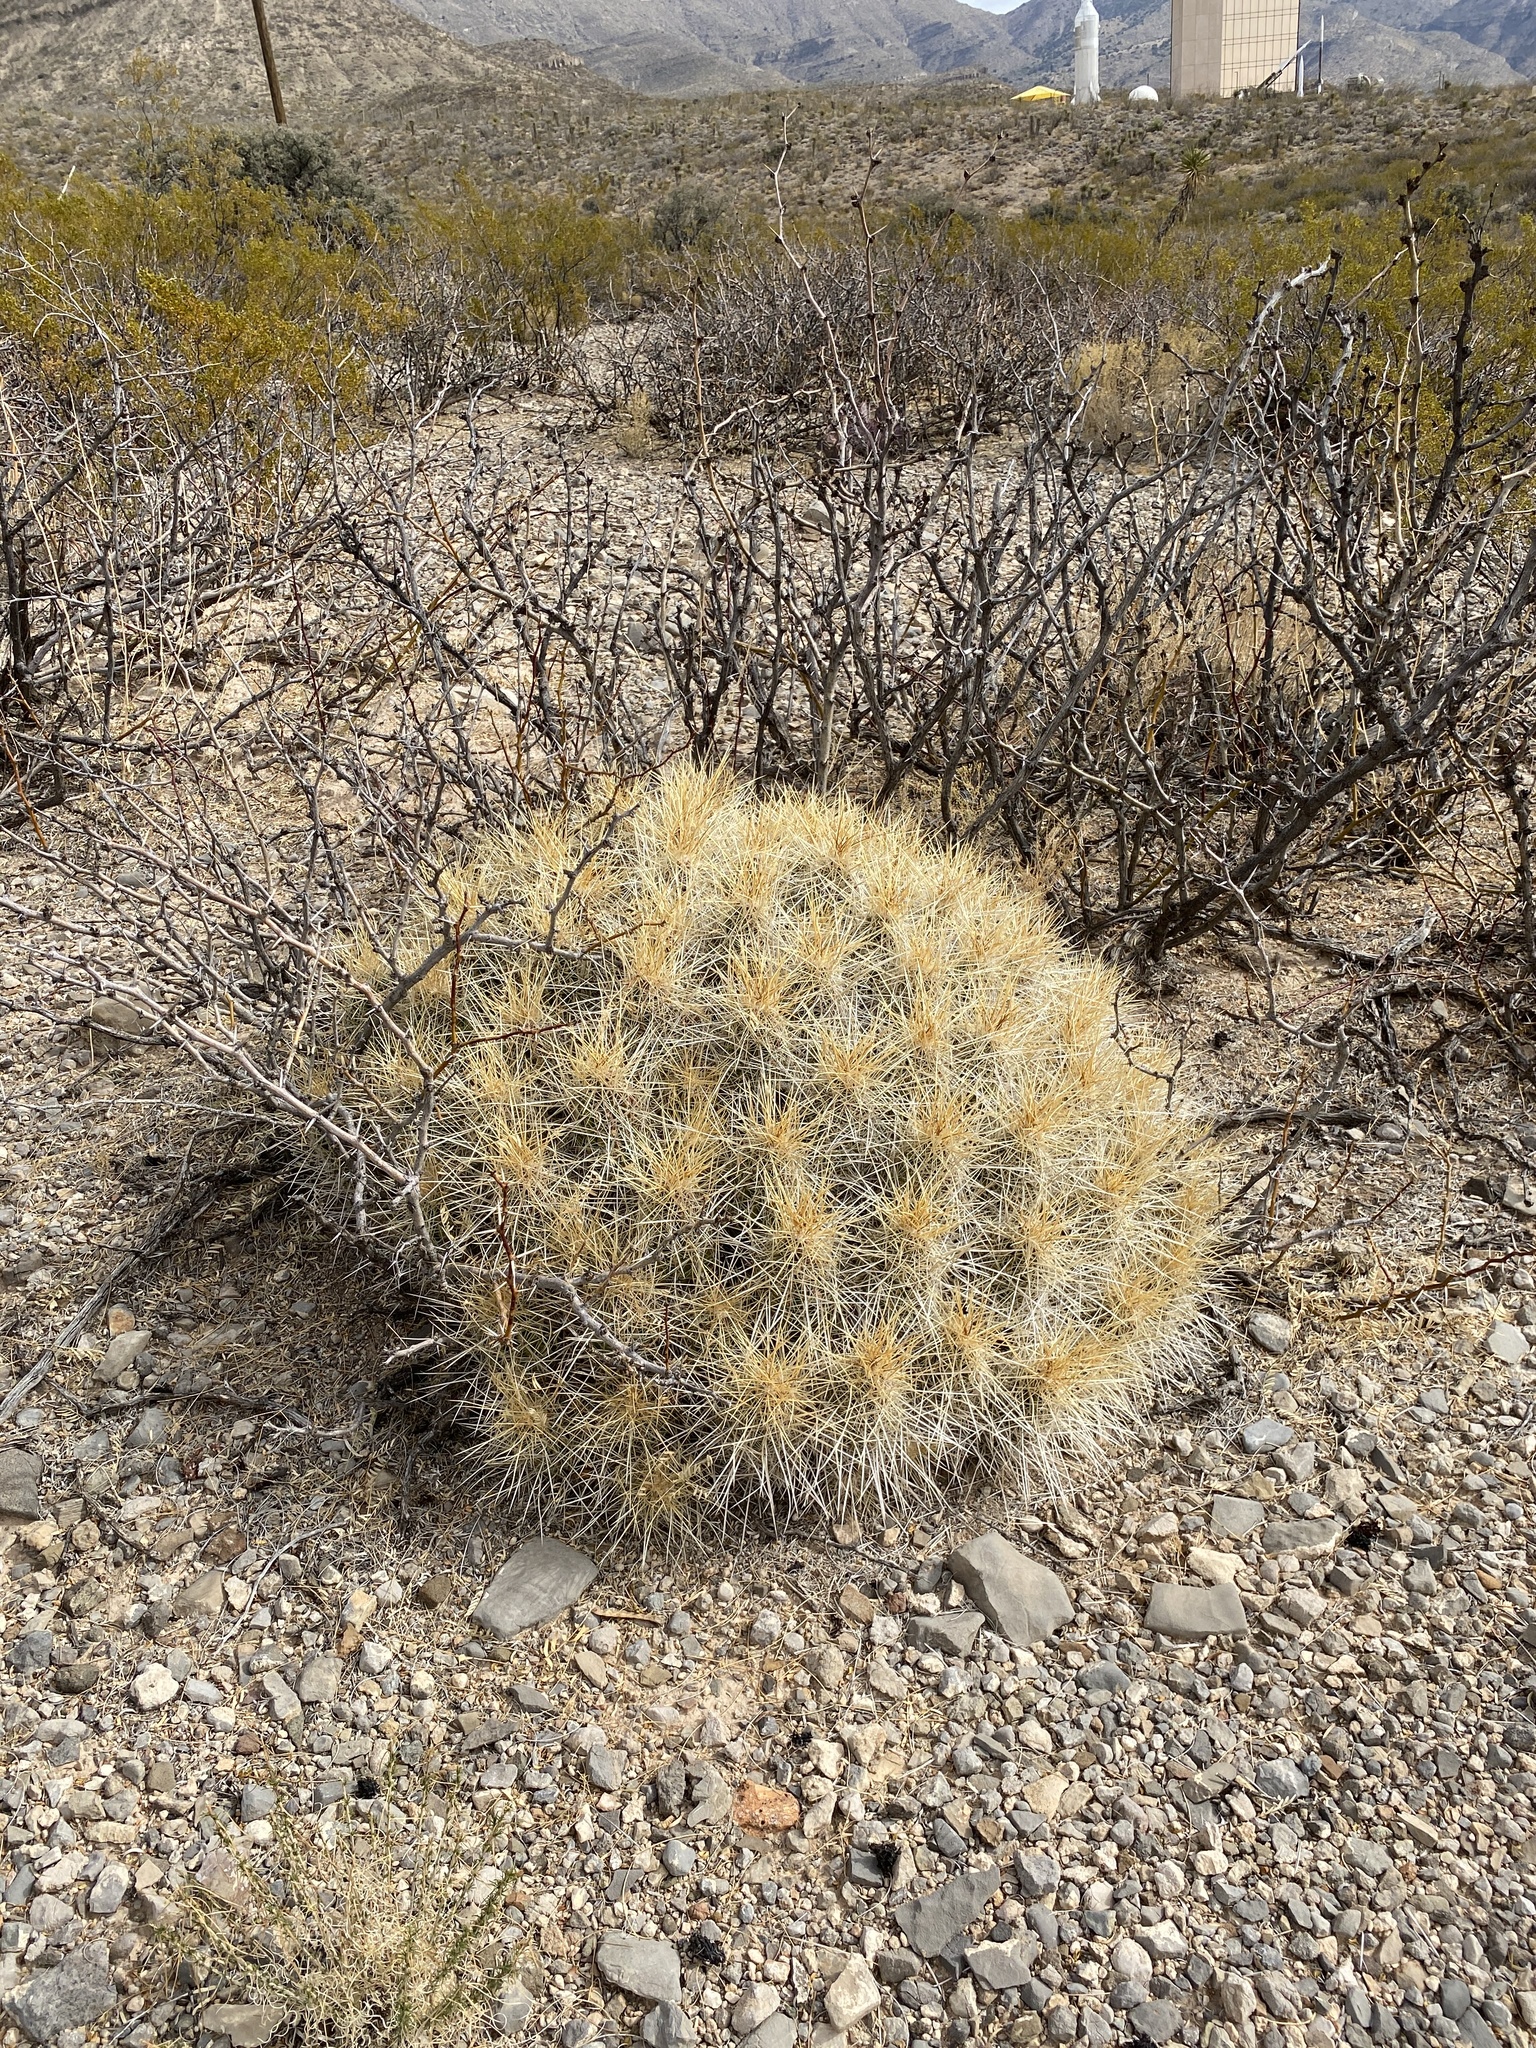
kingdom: Plantae
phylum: Tracheophyta
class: Magnoliopsida
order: Caryophyllales
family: Cactaceae
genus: Echinocereus
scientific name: Echinocereus stramineus
